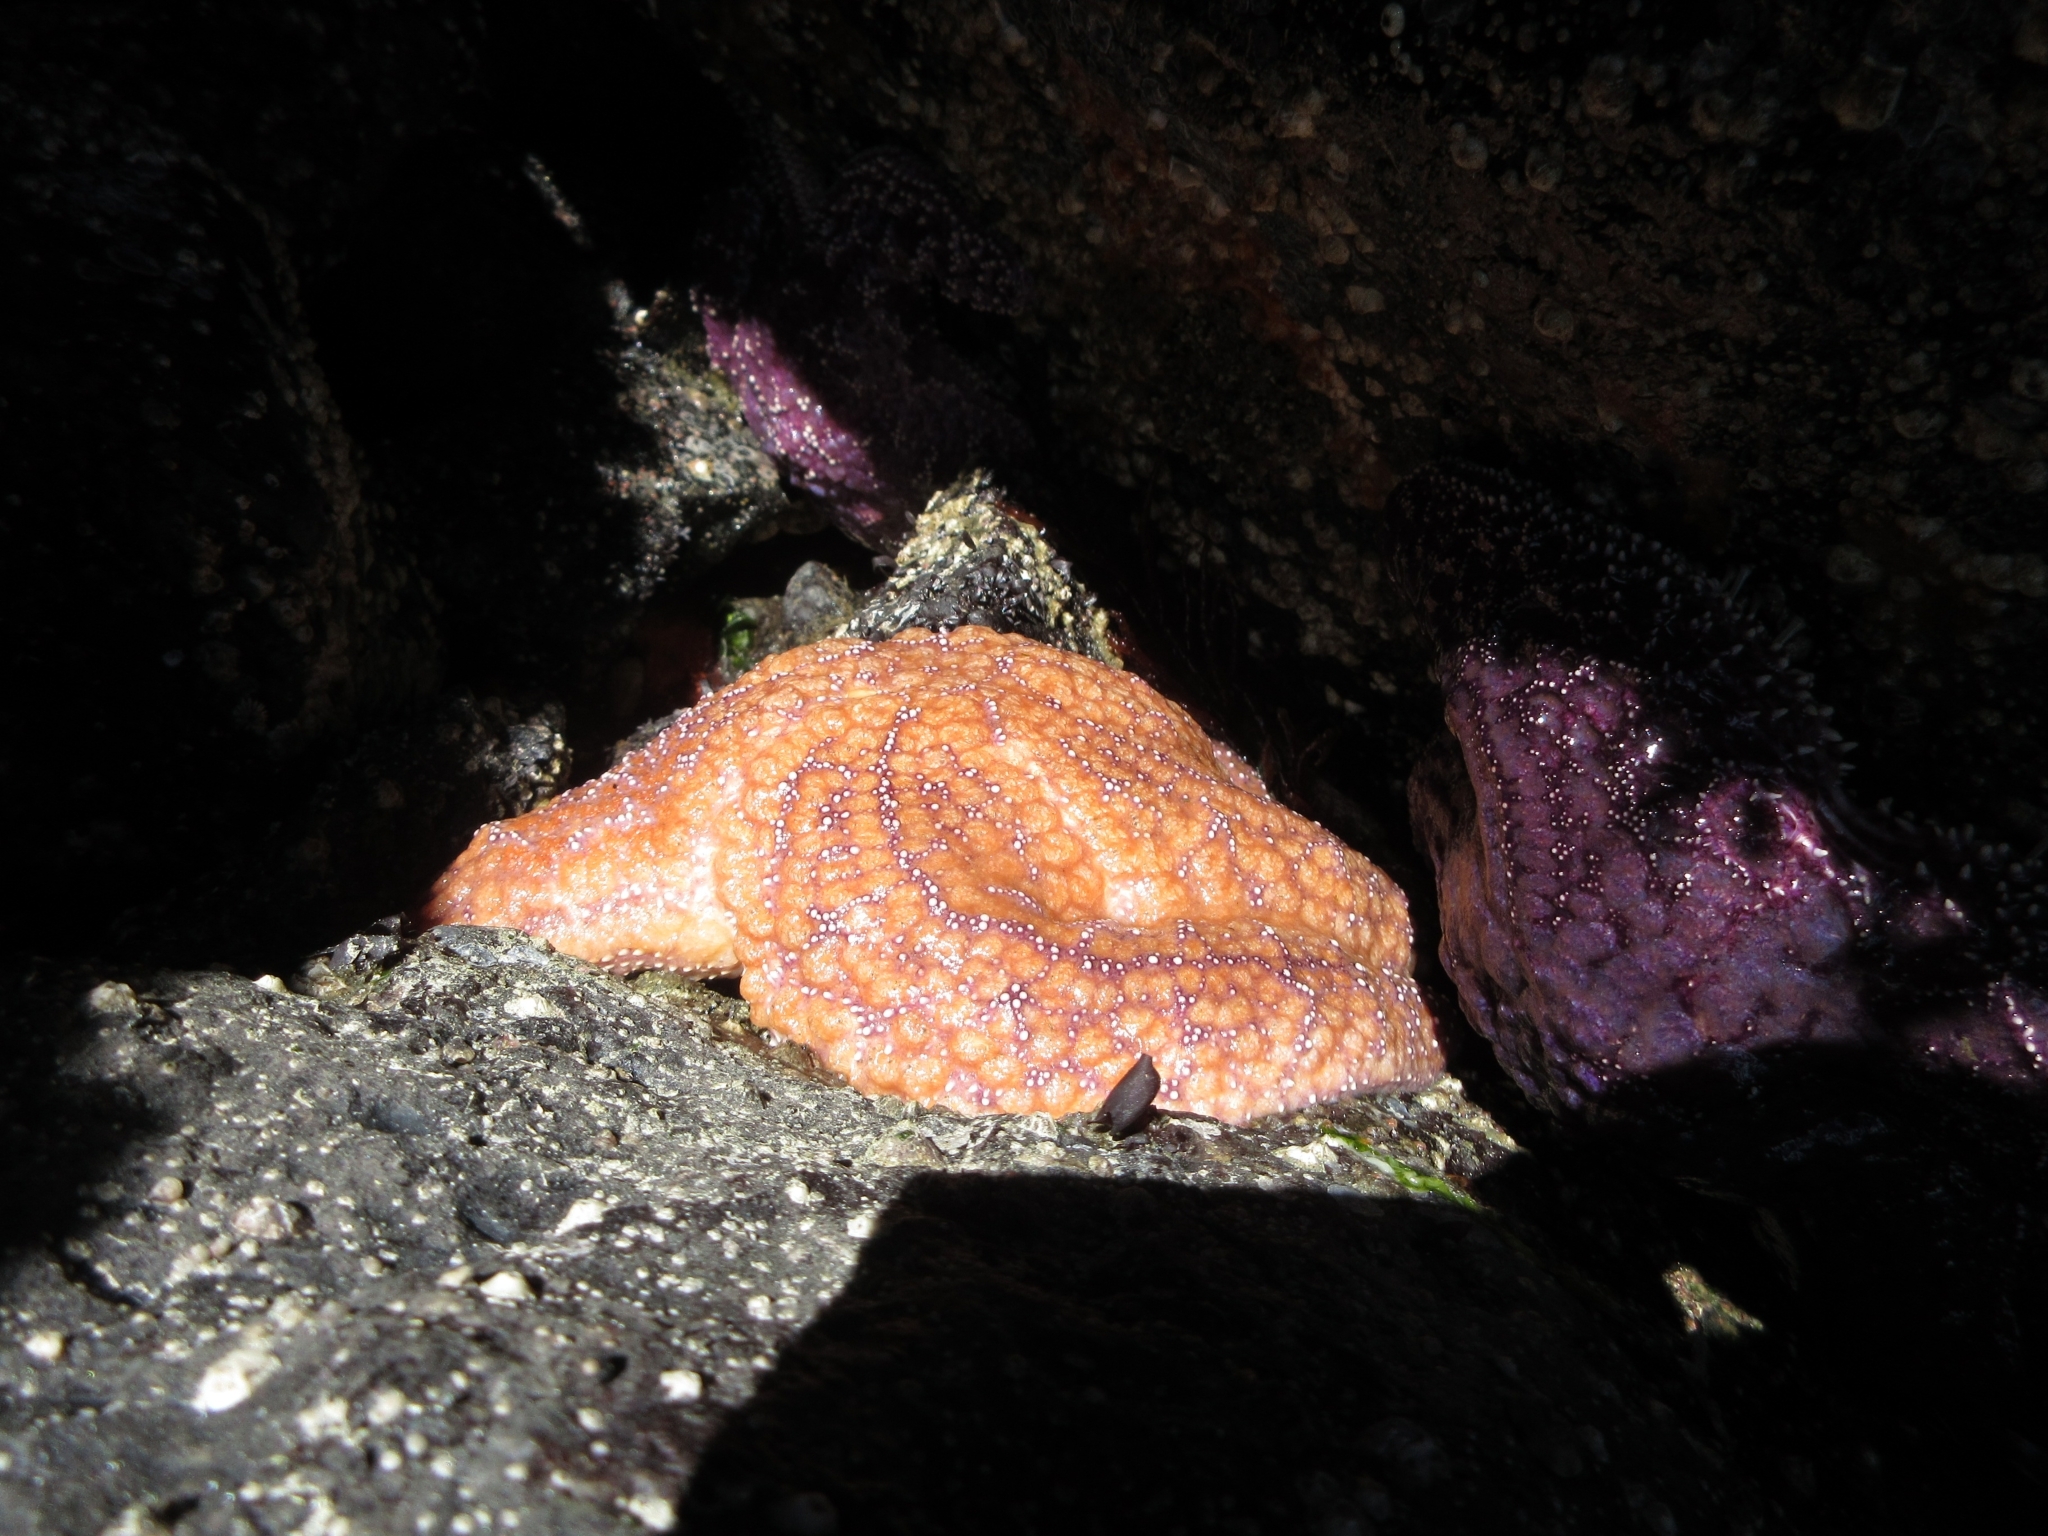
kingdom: Animalia
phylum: Echinodermata
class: Asteroidea
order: Forcipulatida
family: Asteriidae
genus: Pisaster
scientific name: Pisaster ochraceus
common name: Ochre stars
